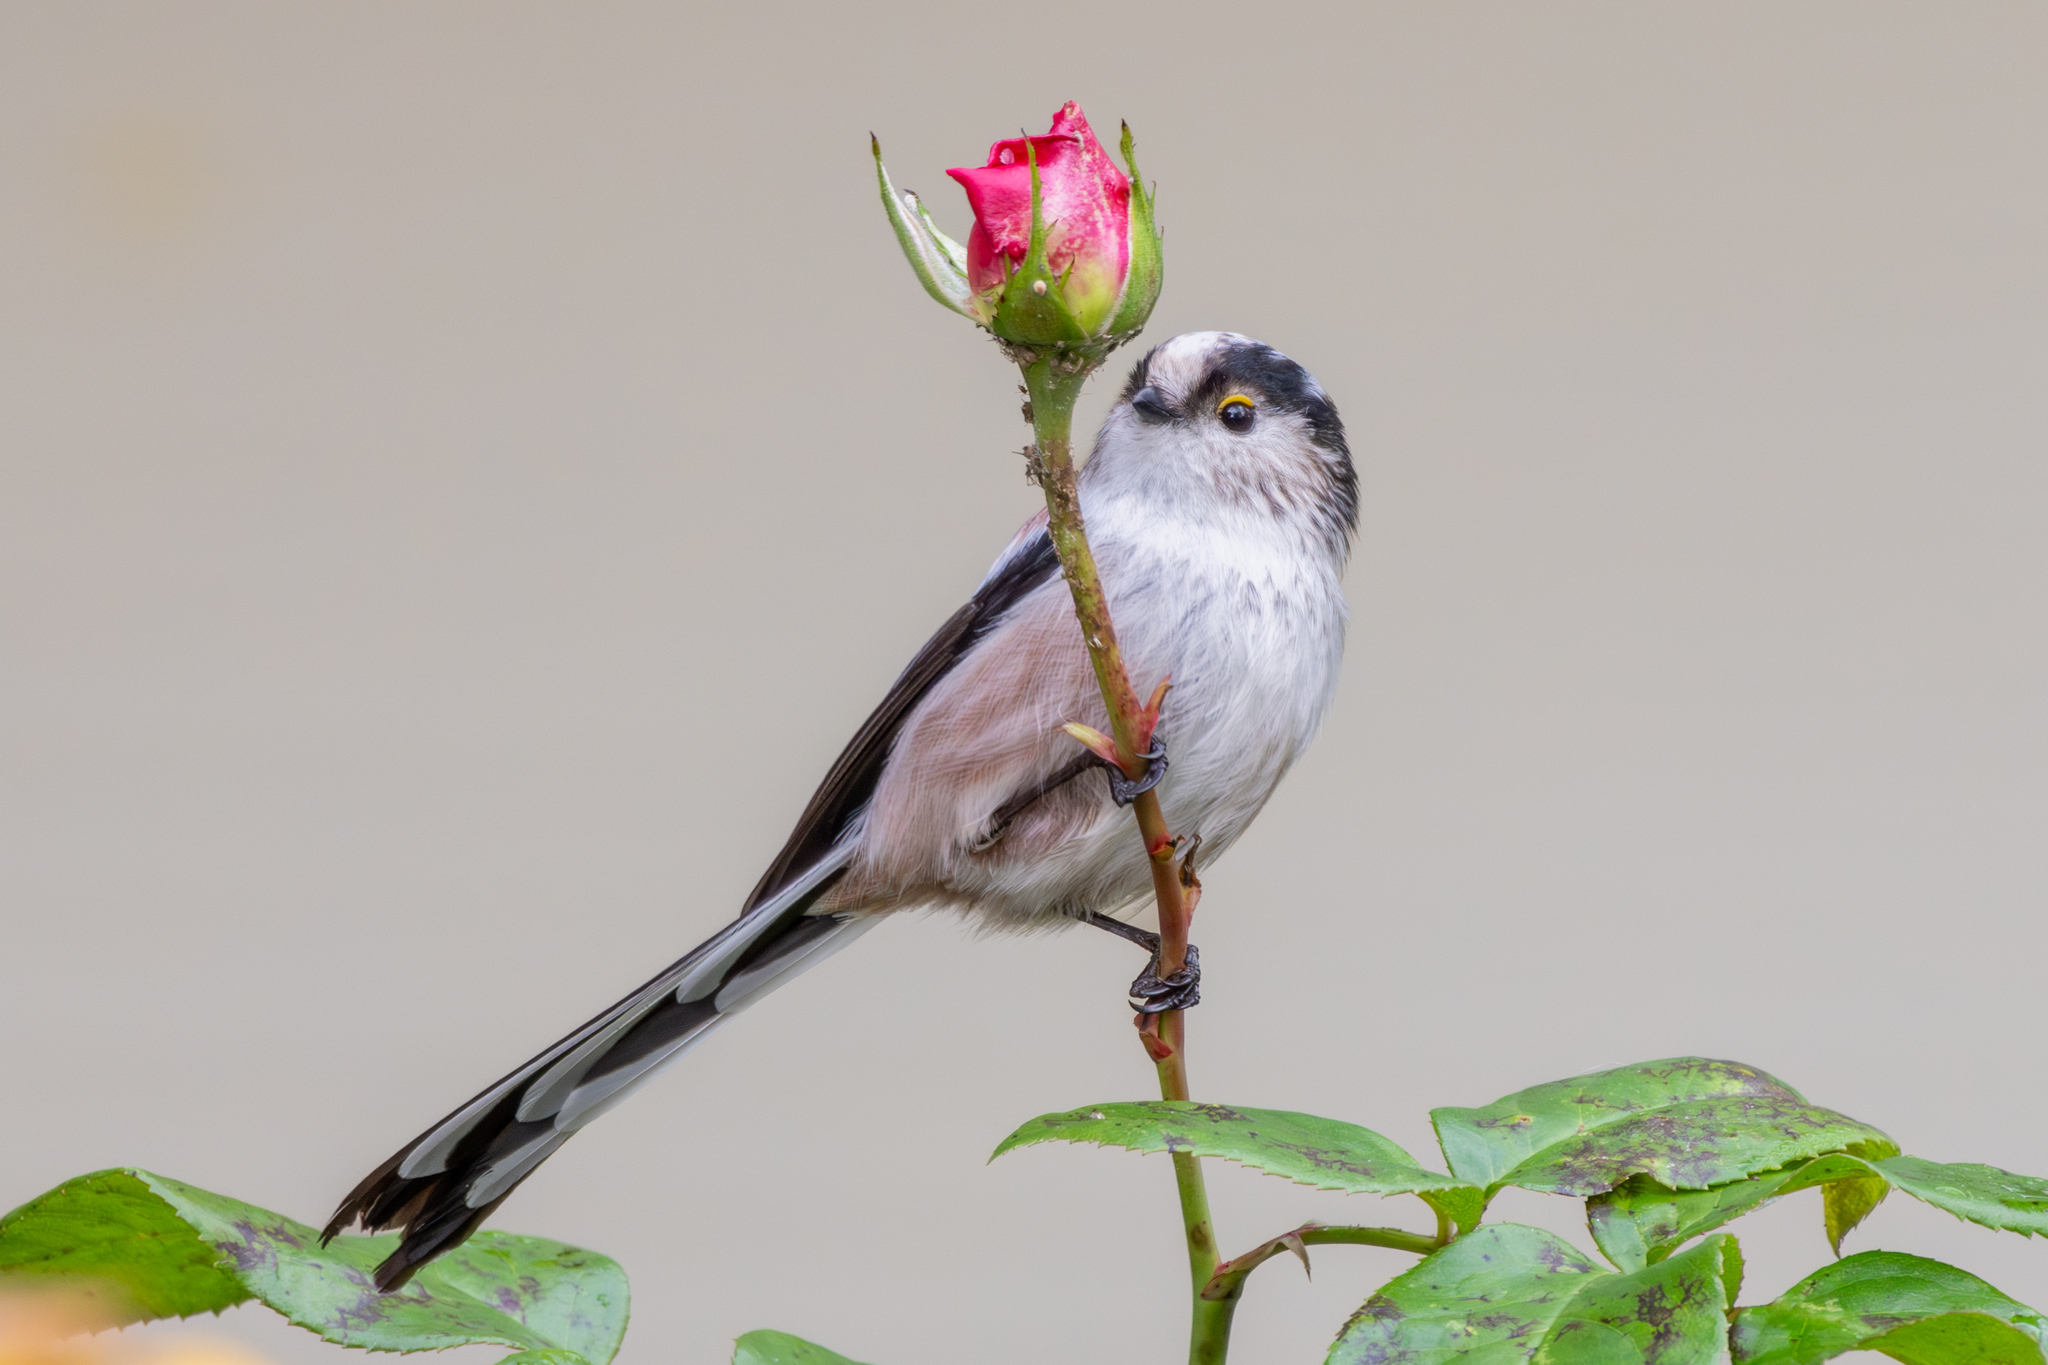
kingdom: Animalia
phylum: Chordata
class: Aves
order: Passeriformes
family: Aegithalidae
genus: Aegithalos
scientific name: Aegithalos caudatus
